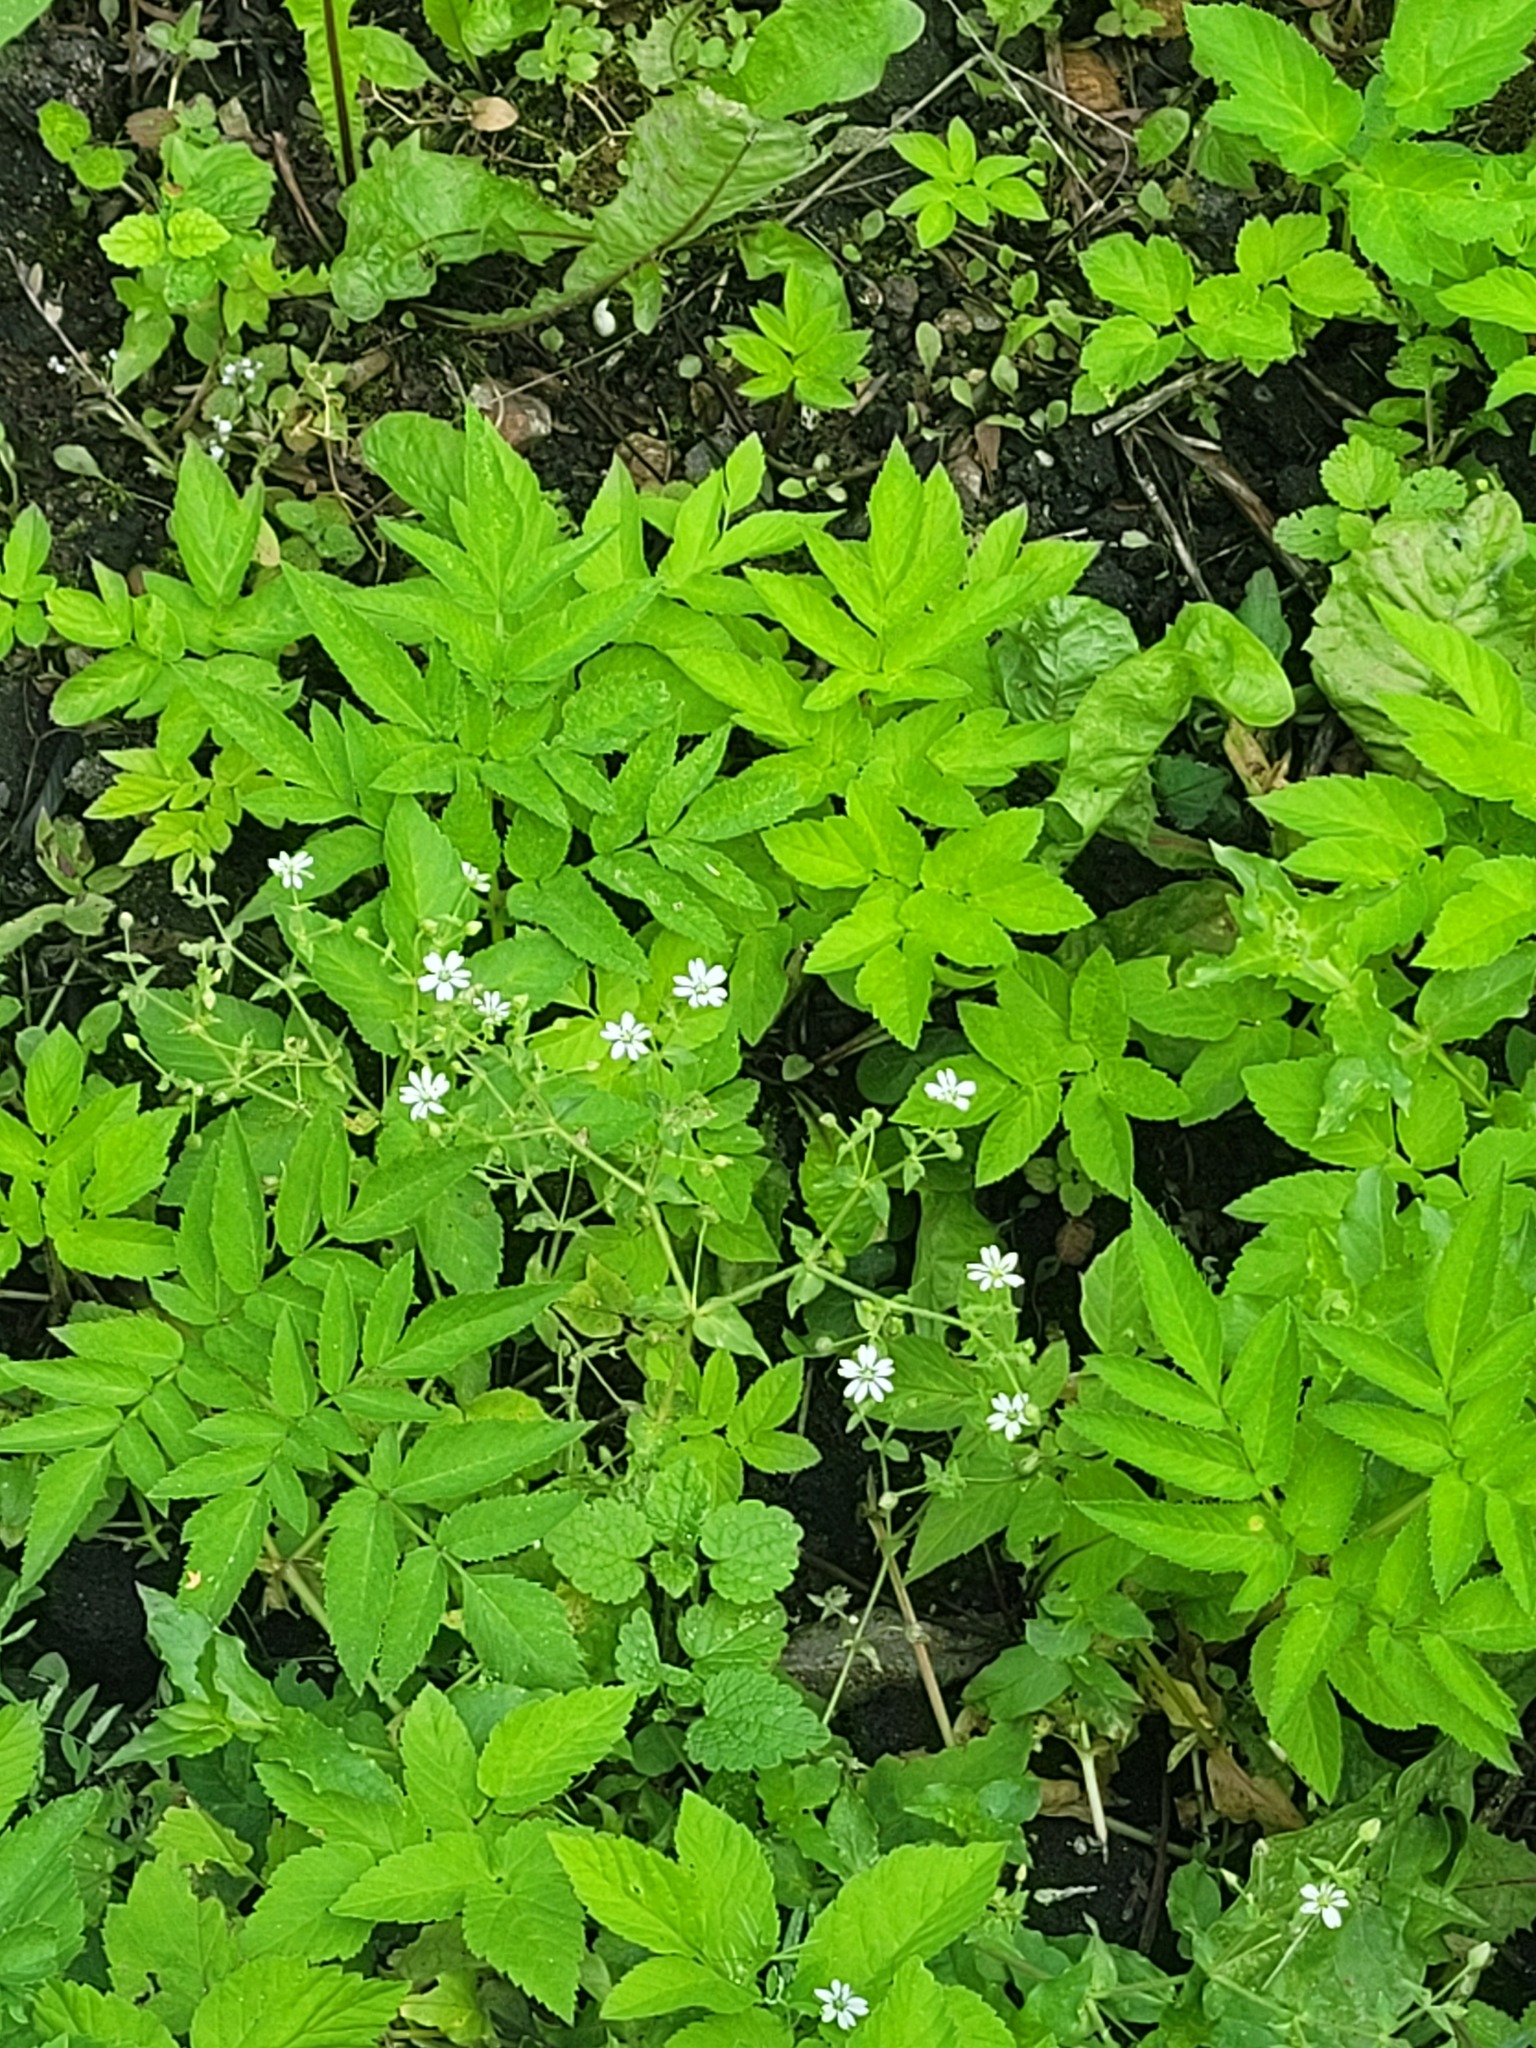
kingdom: Plantae
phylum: Tracheophyta
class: Magnoliopsida
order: Caryophyllales
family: Caryophyllaceae
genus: Stellaria
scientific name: Stellaria aquatica
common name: Water chickweed
